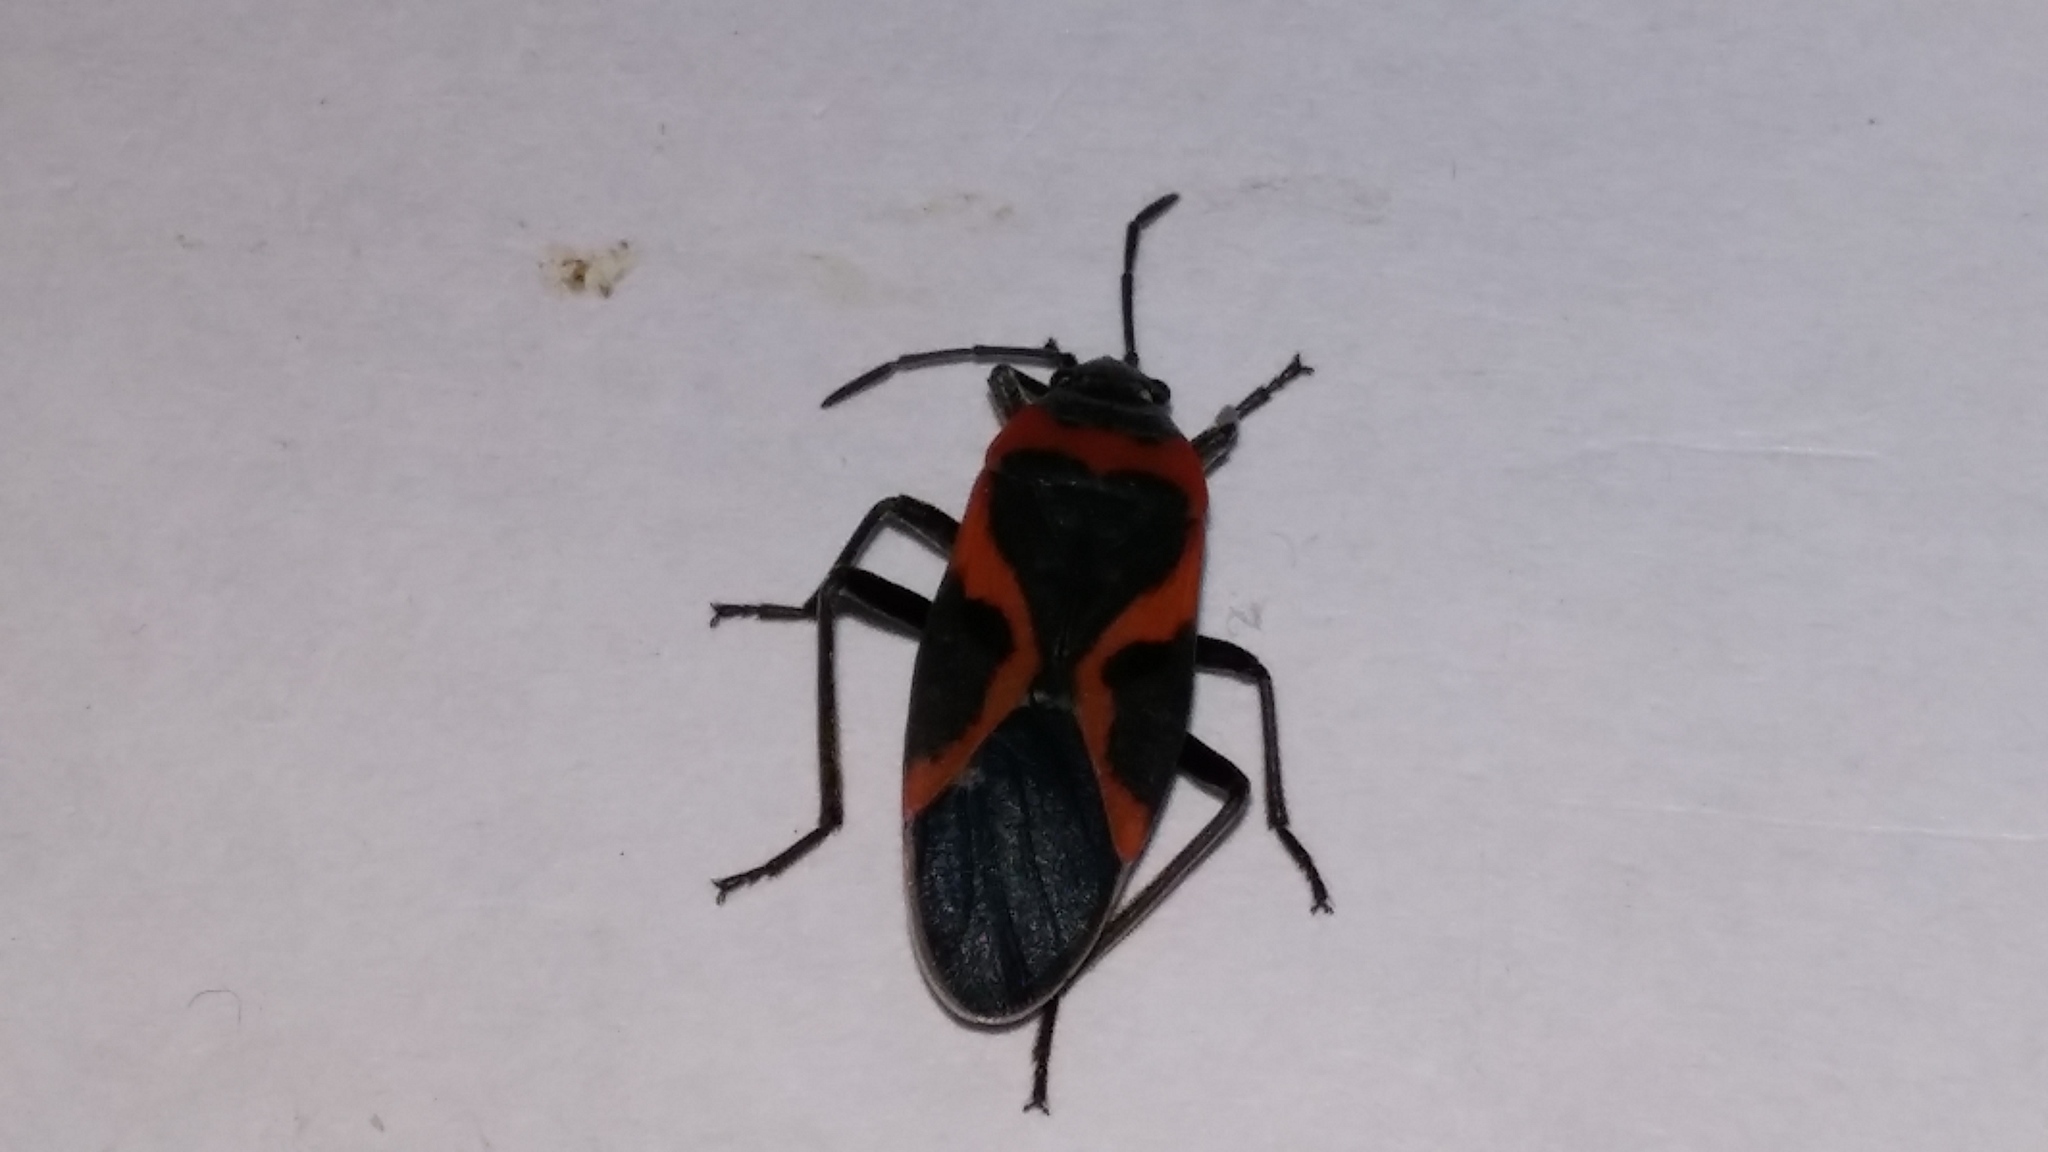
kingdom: Animalia
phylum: Arthropoda
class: Insecta
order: Hemiptera
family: Lygaeidae
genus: Lygaeus
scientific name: Lygaeus kalmii
